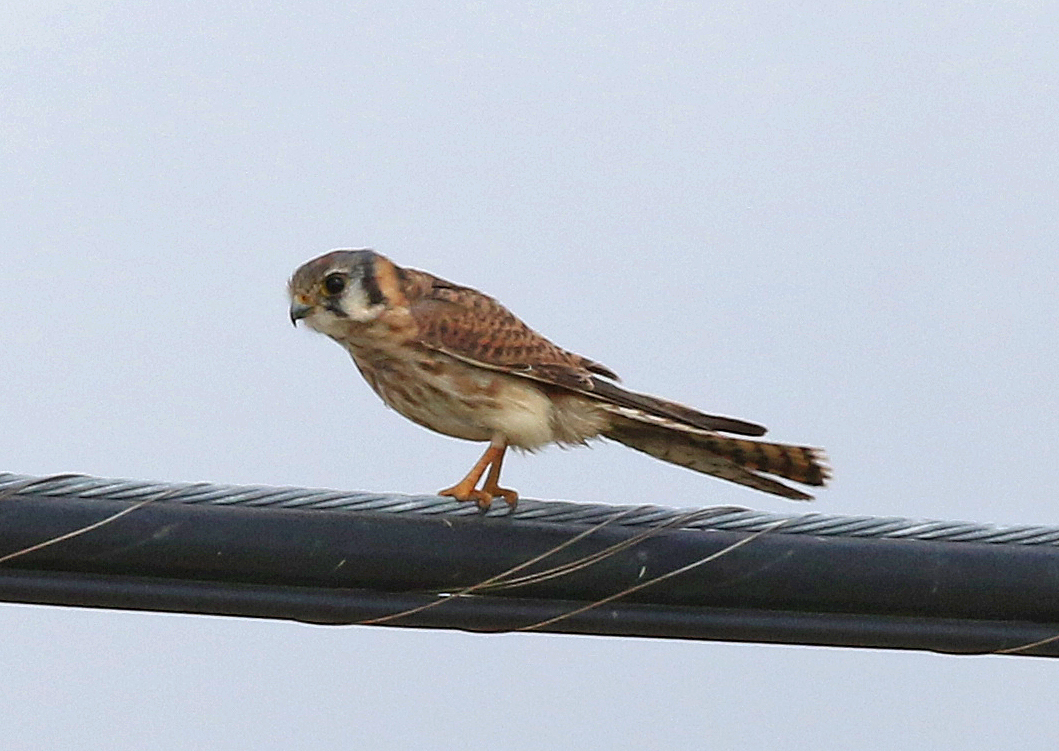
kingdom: Animalia
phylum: Chordata
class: Aves
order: Falconiformes
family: Falconidae
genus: Falco
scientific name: Falco sparverius
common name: American kestrel
